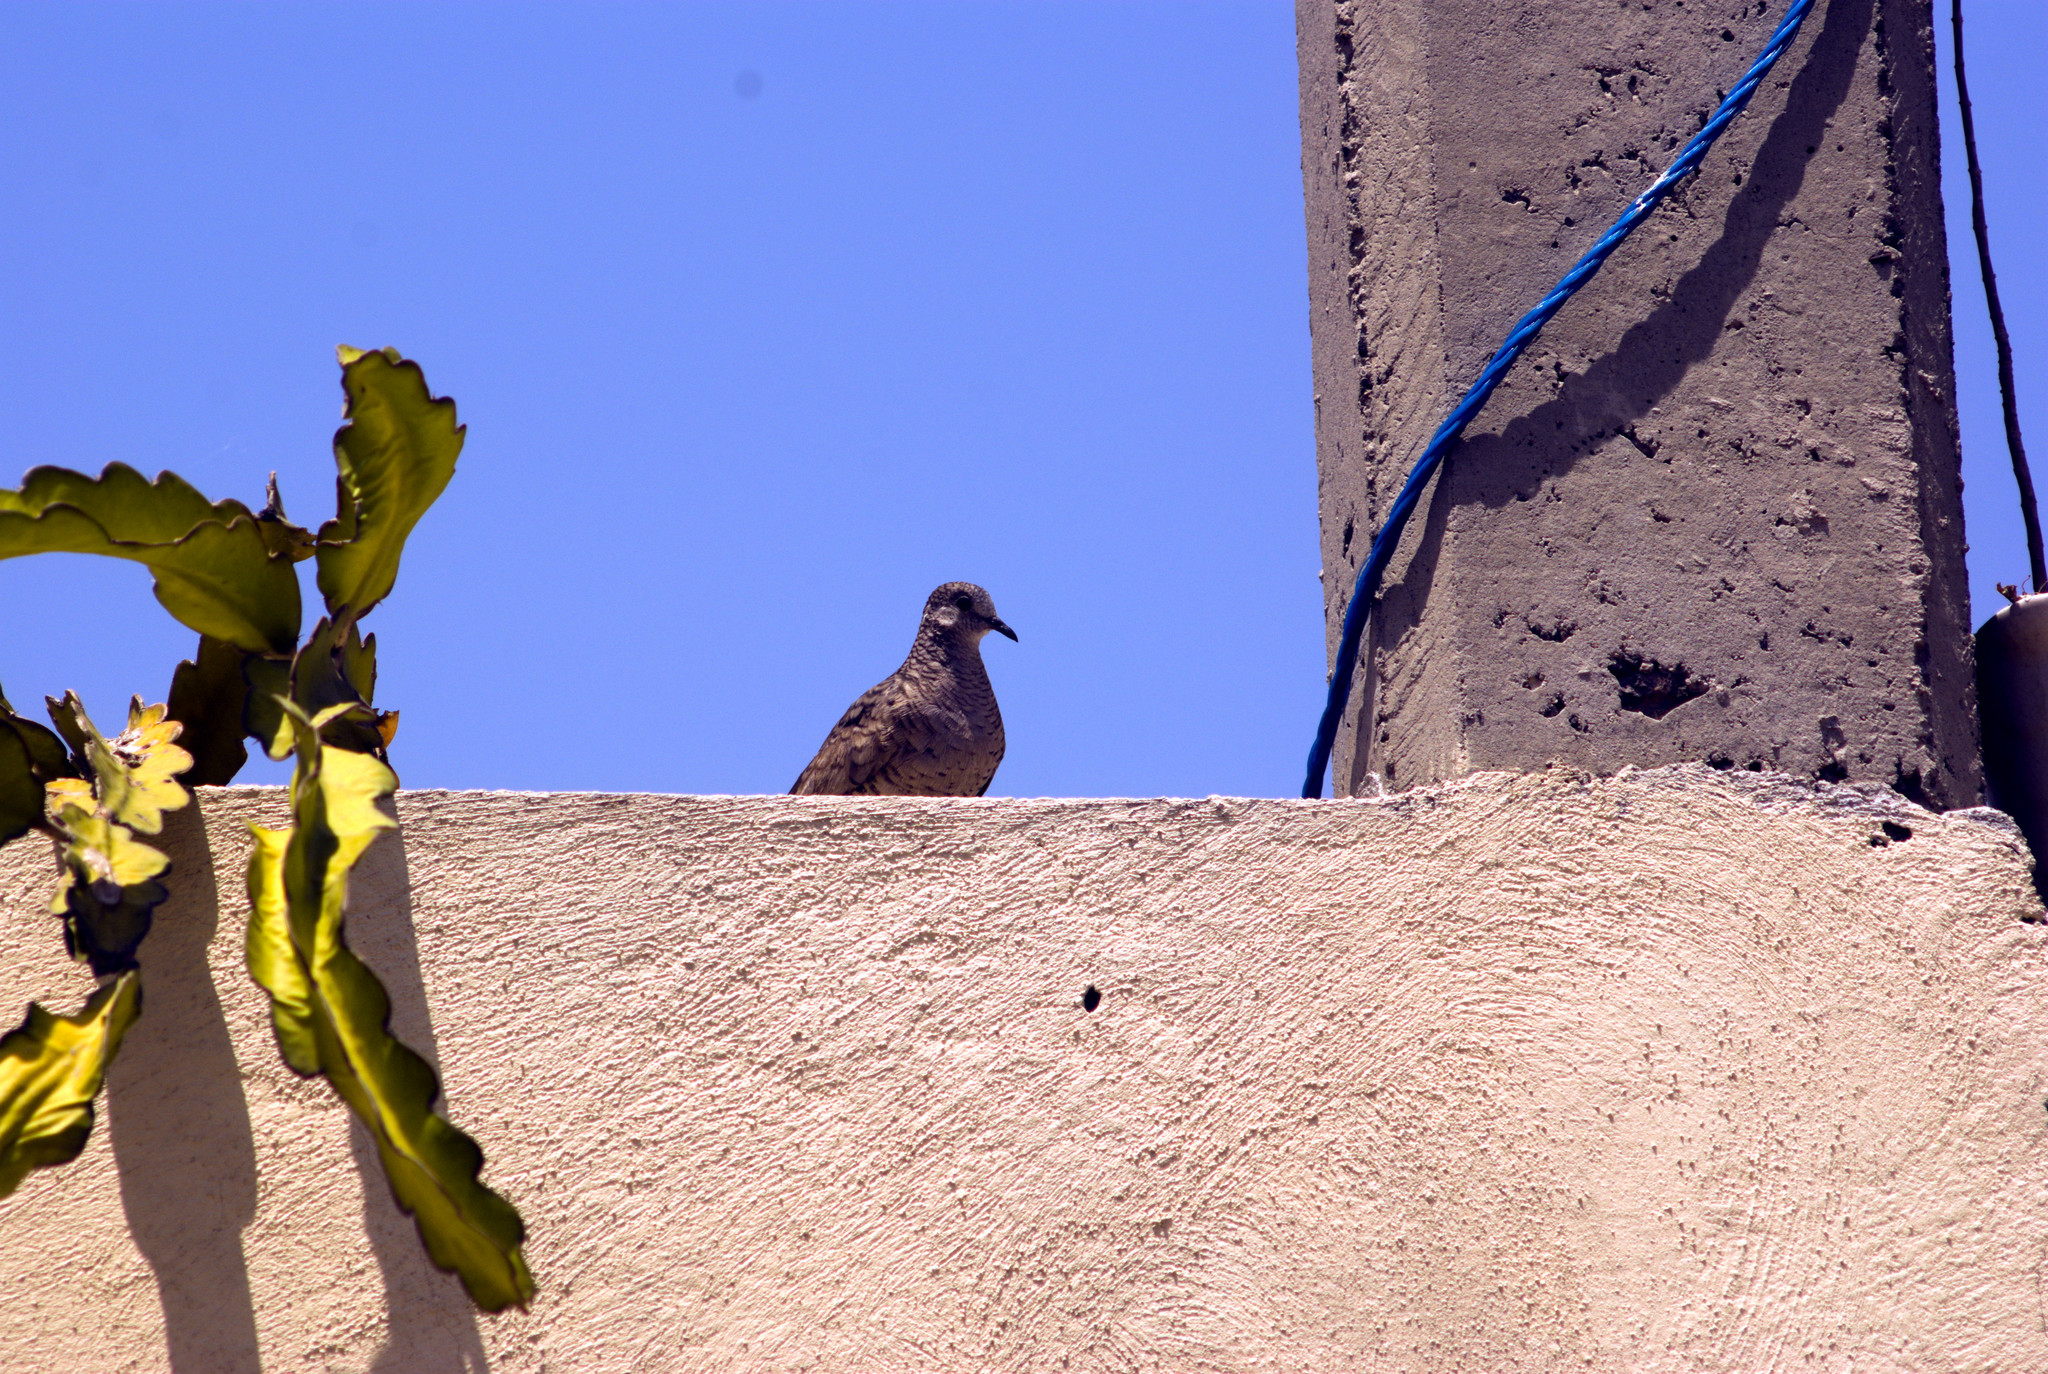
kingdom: Animalia
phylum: Chordata
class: Aves
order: Columbiformes
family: Columbidae
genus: Columbina
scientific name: Columbina inca
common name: Inca dove
